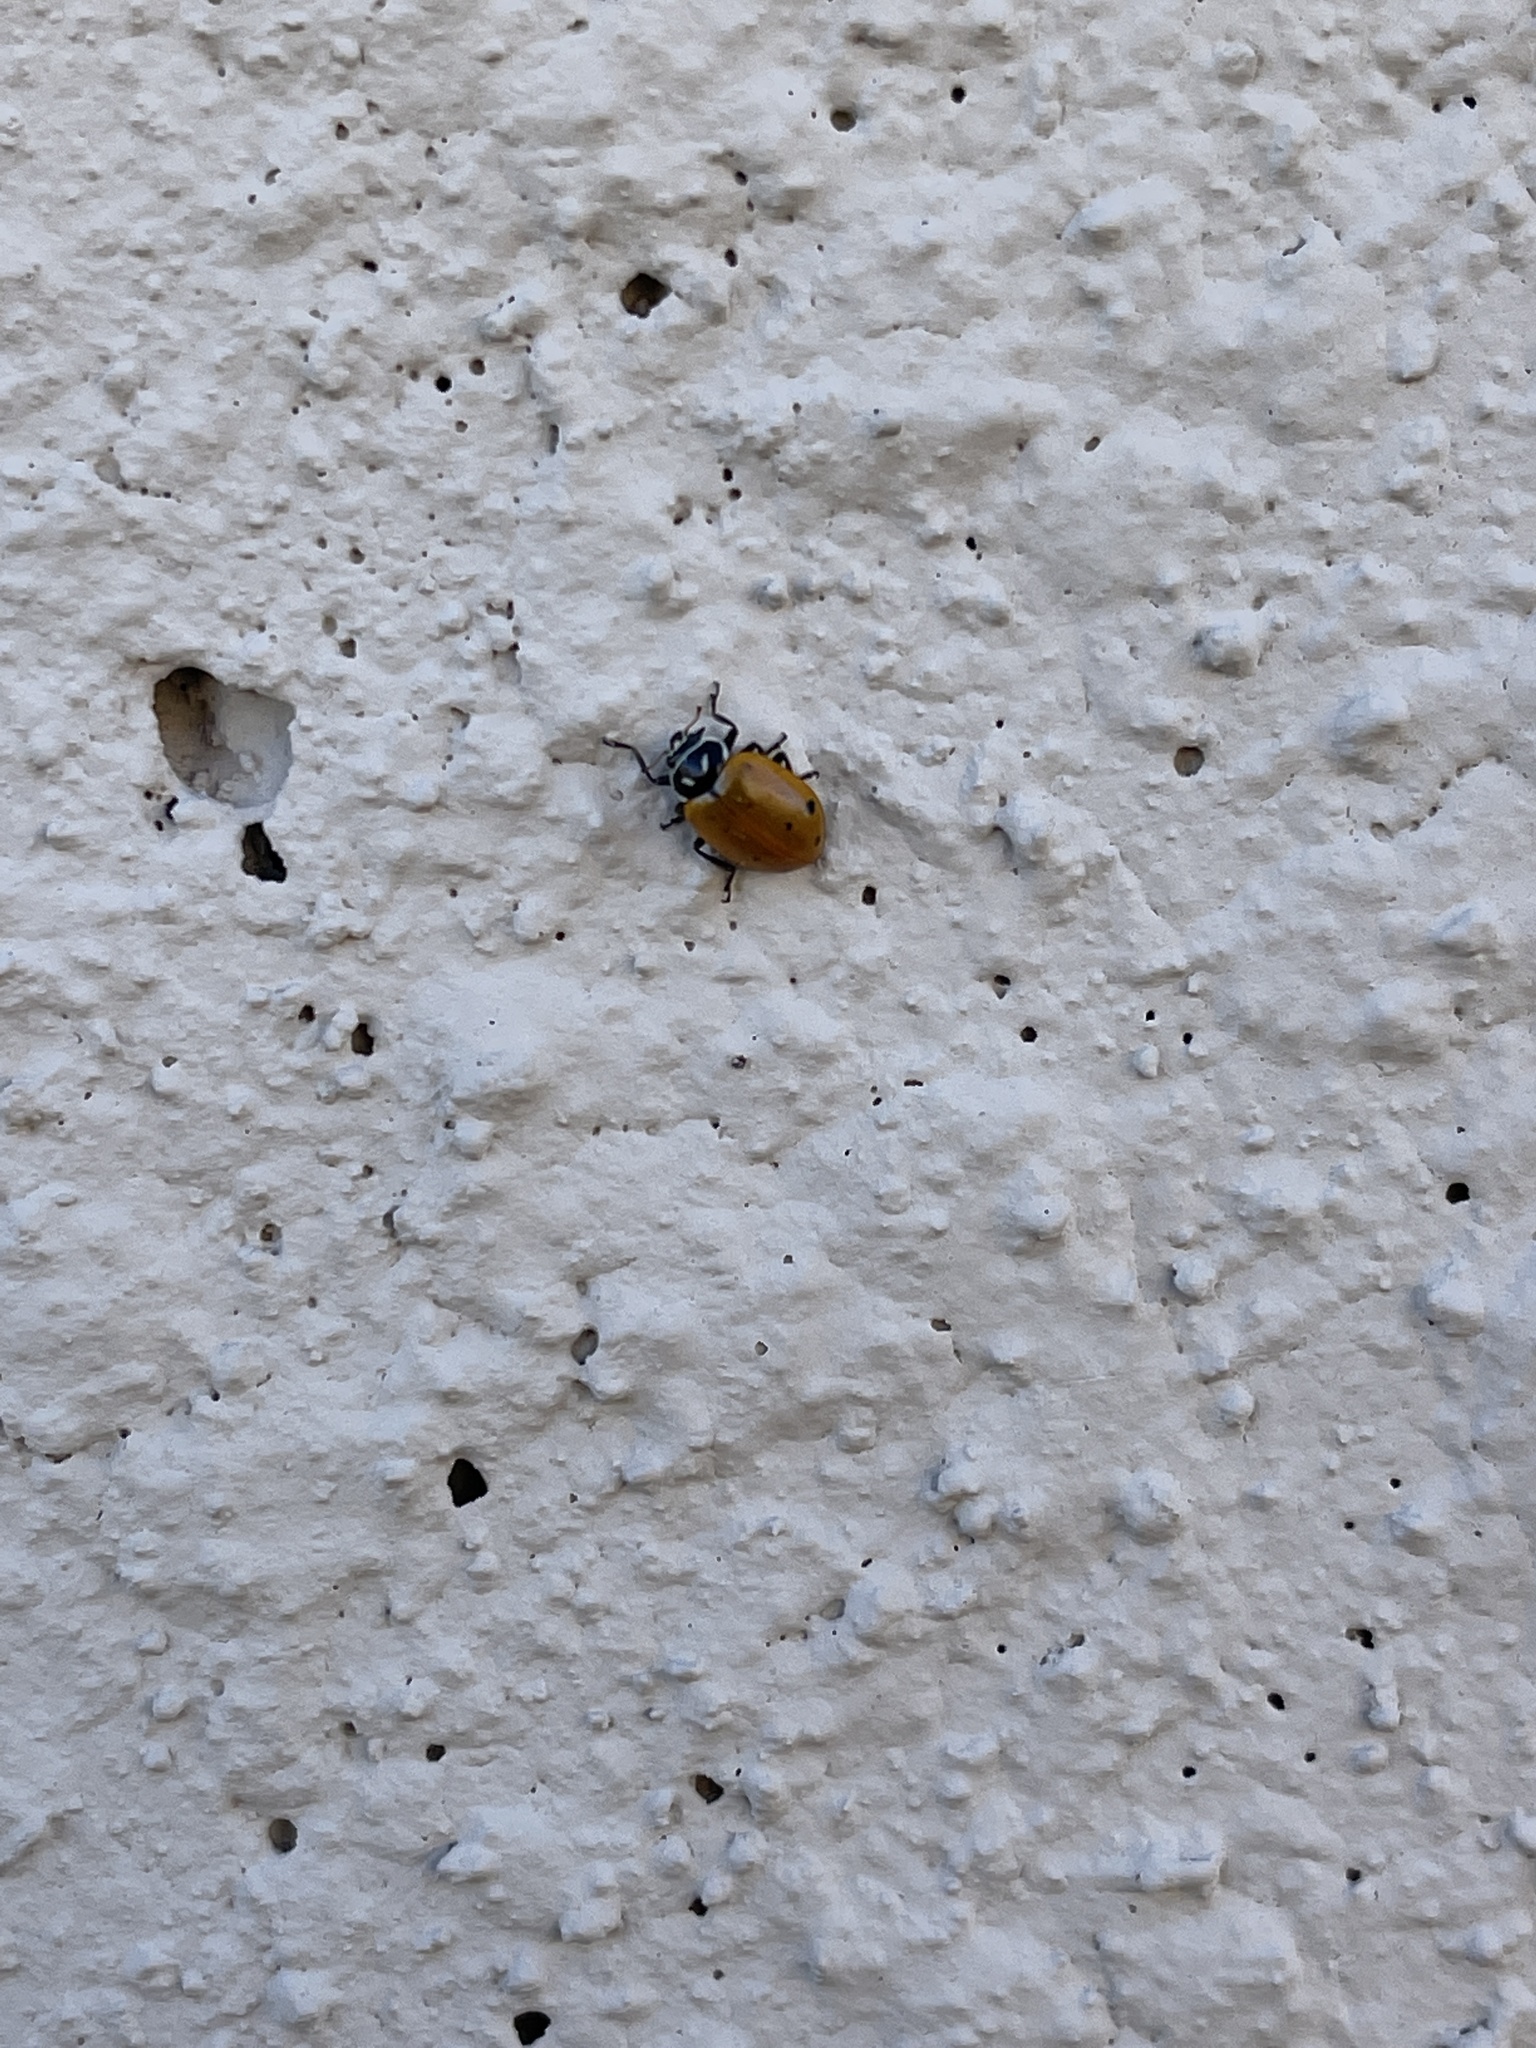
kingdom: Animalia
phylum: Arthropoda
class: Insecta
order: Coleoptera
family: Coccinellidae
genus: Hippodamia
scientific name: Hippodamia convergens
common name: Convergent lady beetle
